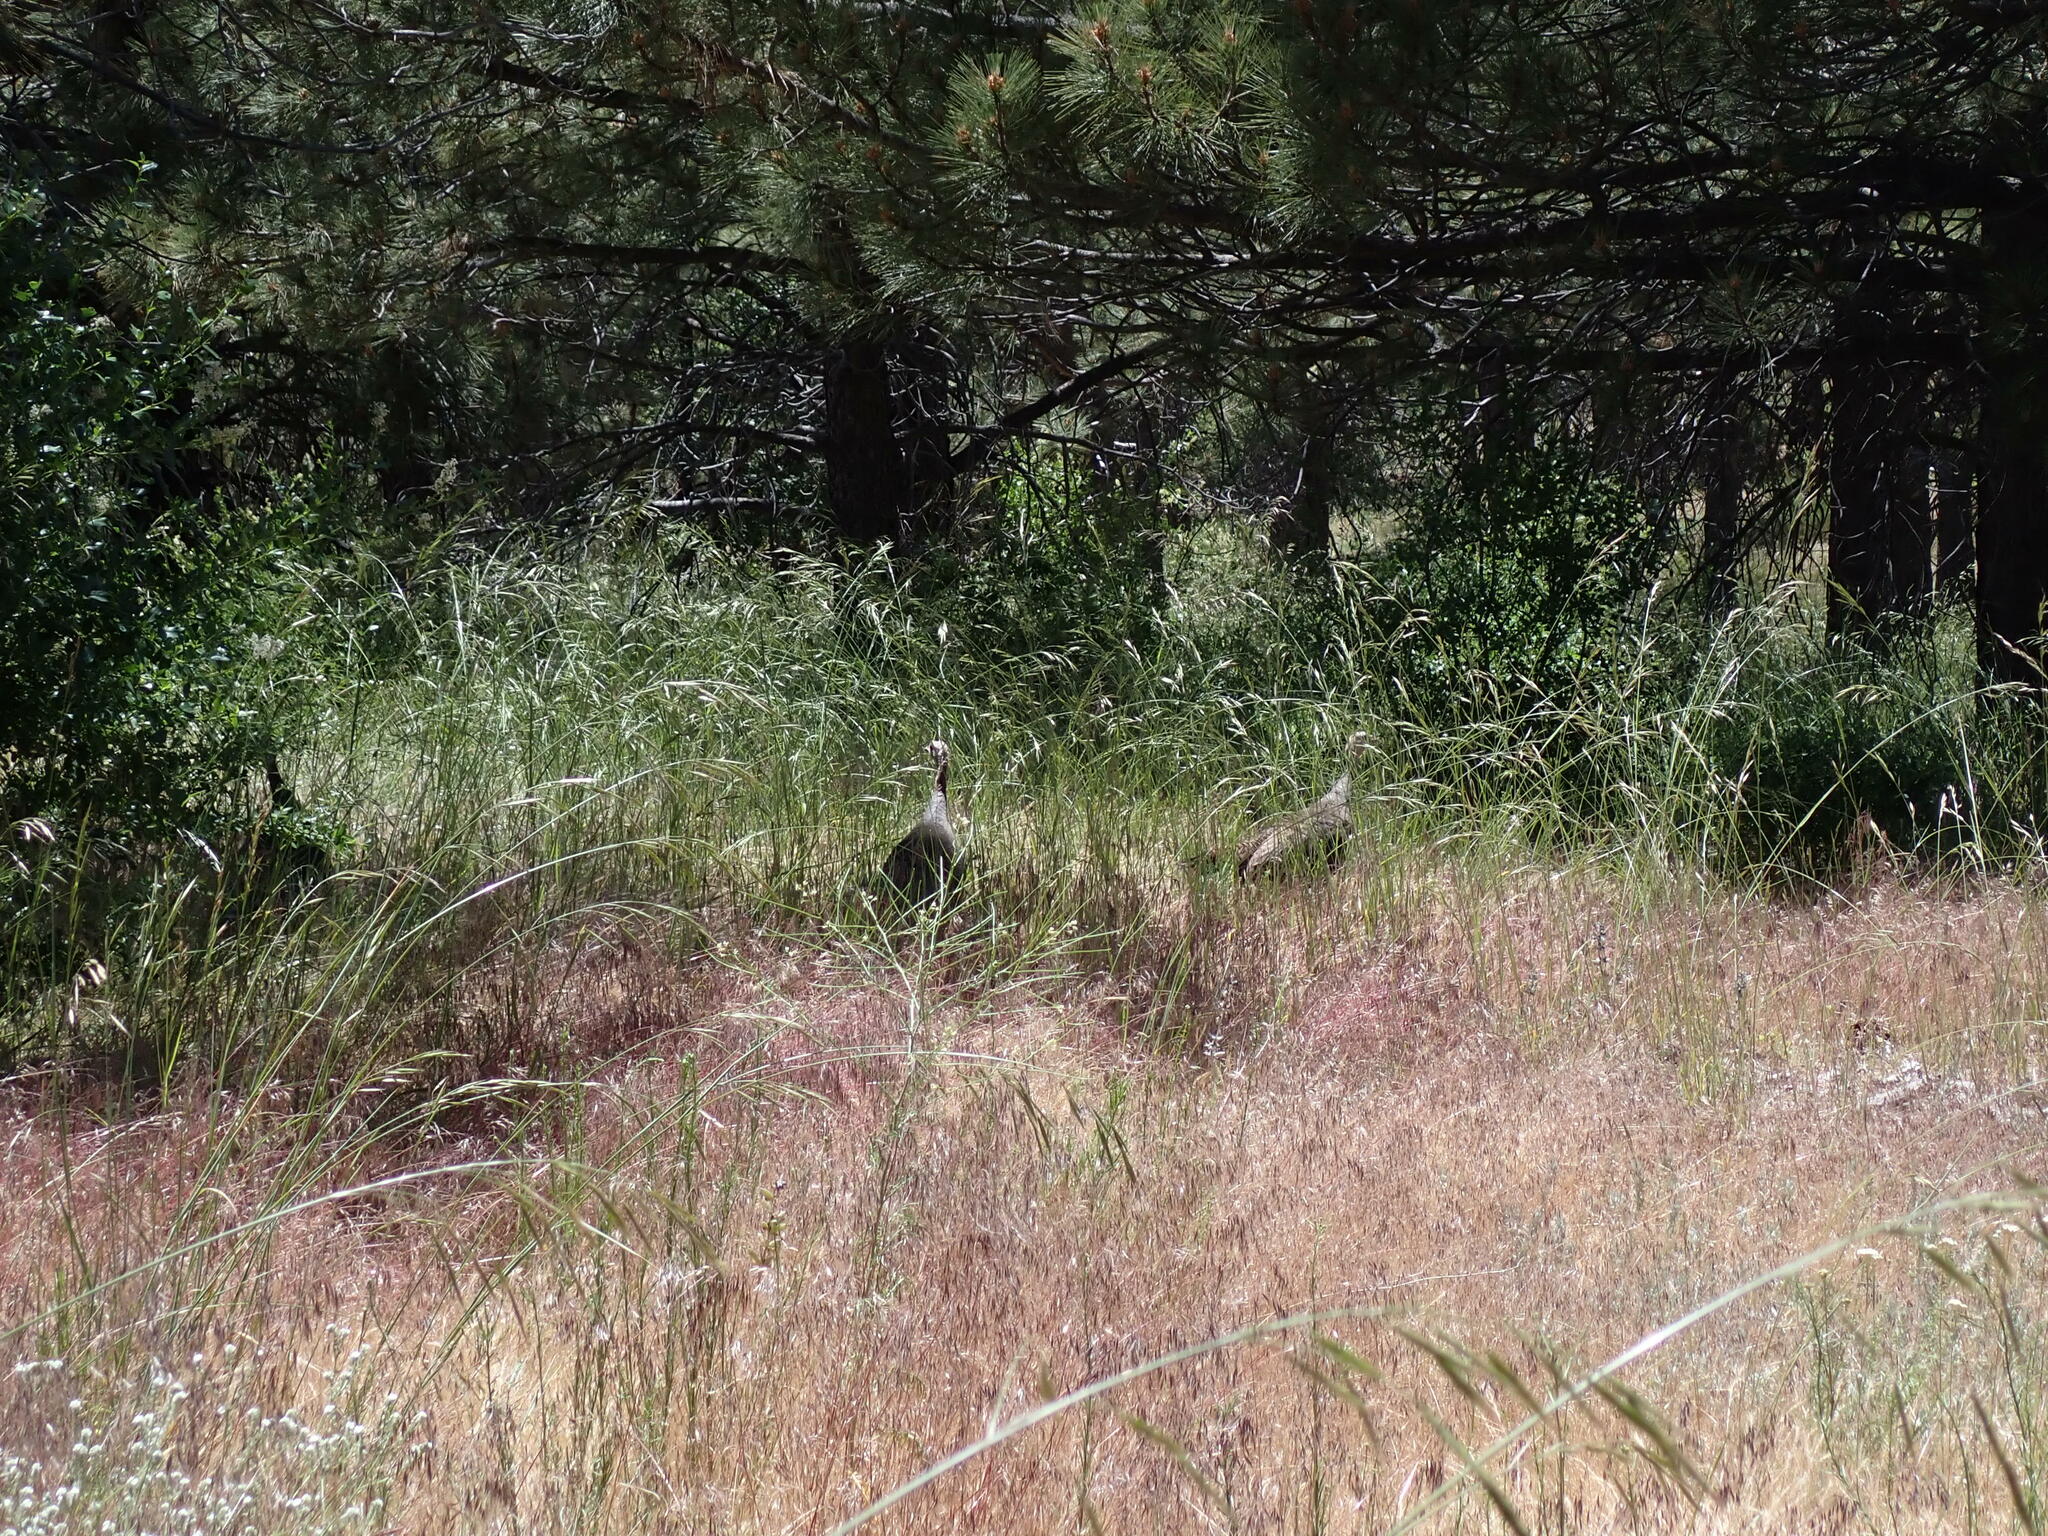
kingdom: Animalia
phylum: Chordata
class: Aves
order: Galliformes
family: Phasianidae
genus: Meleagris
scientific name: Meleagris gallopavo
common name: Wild turkey
